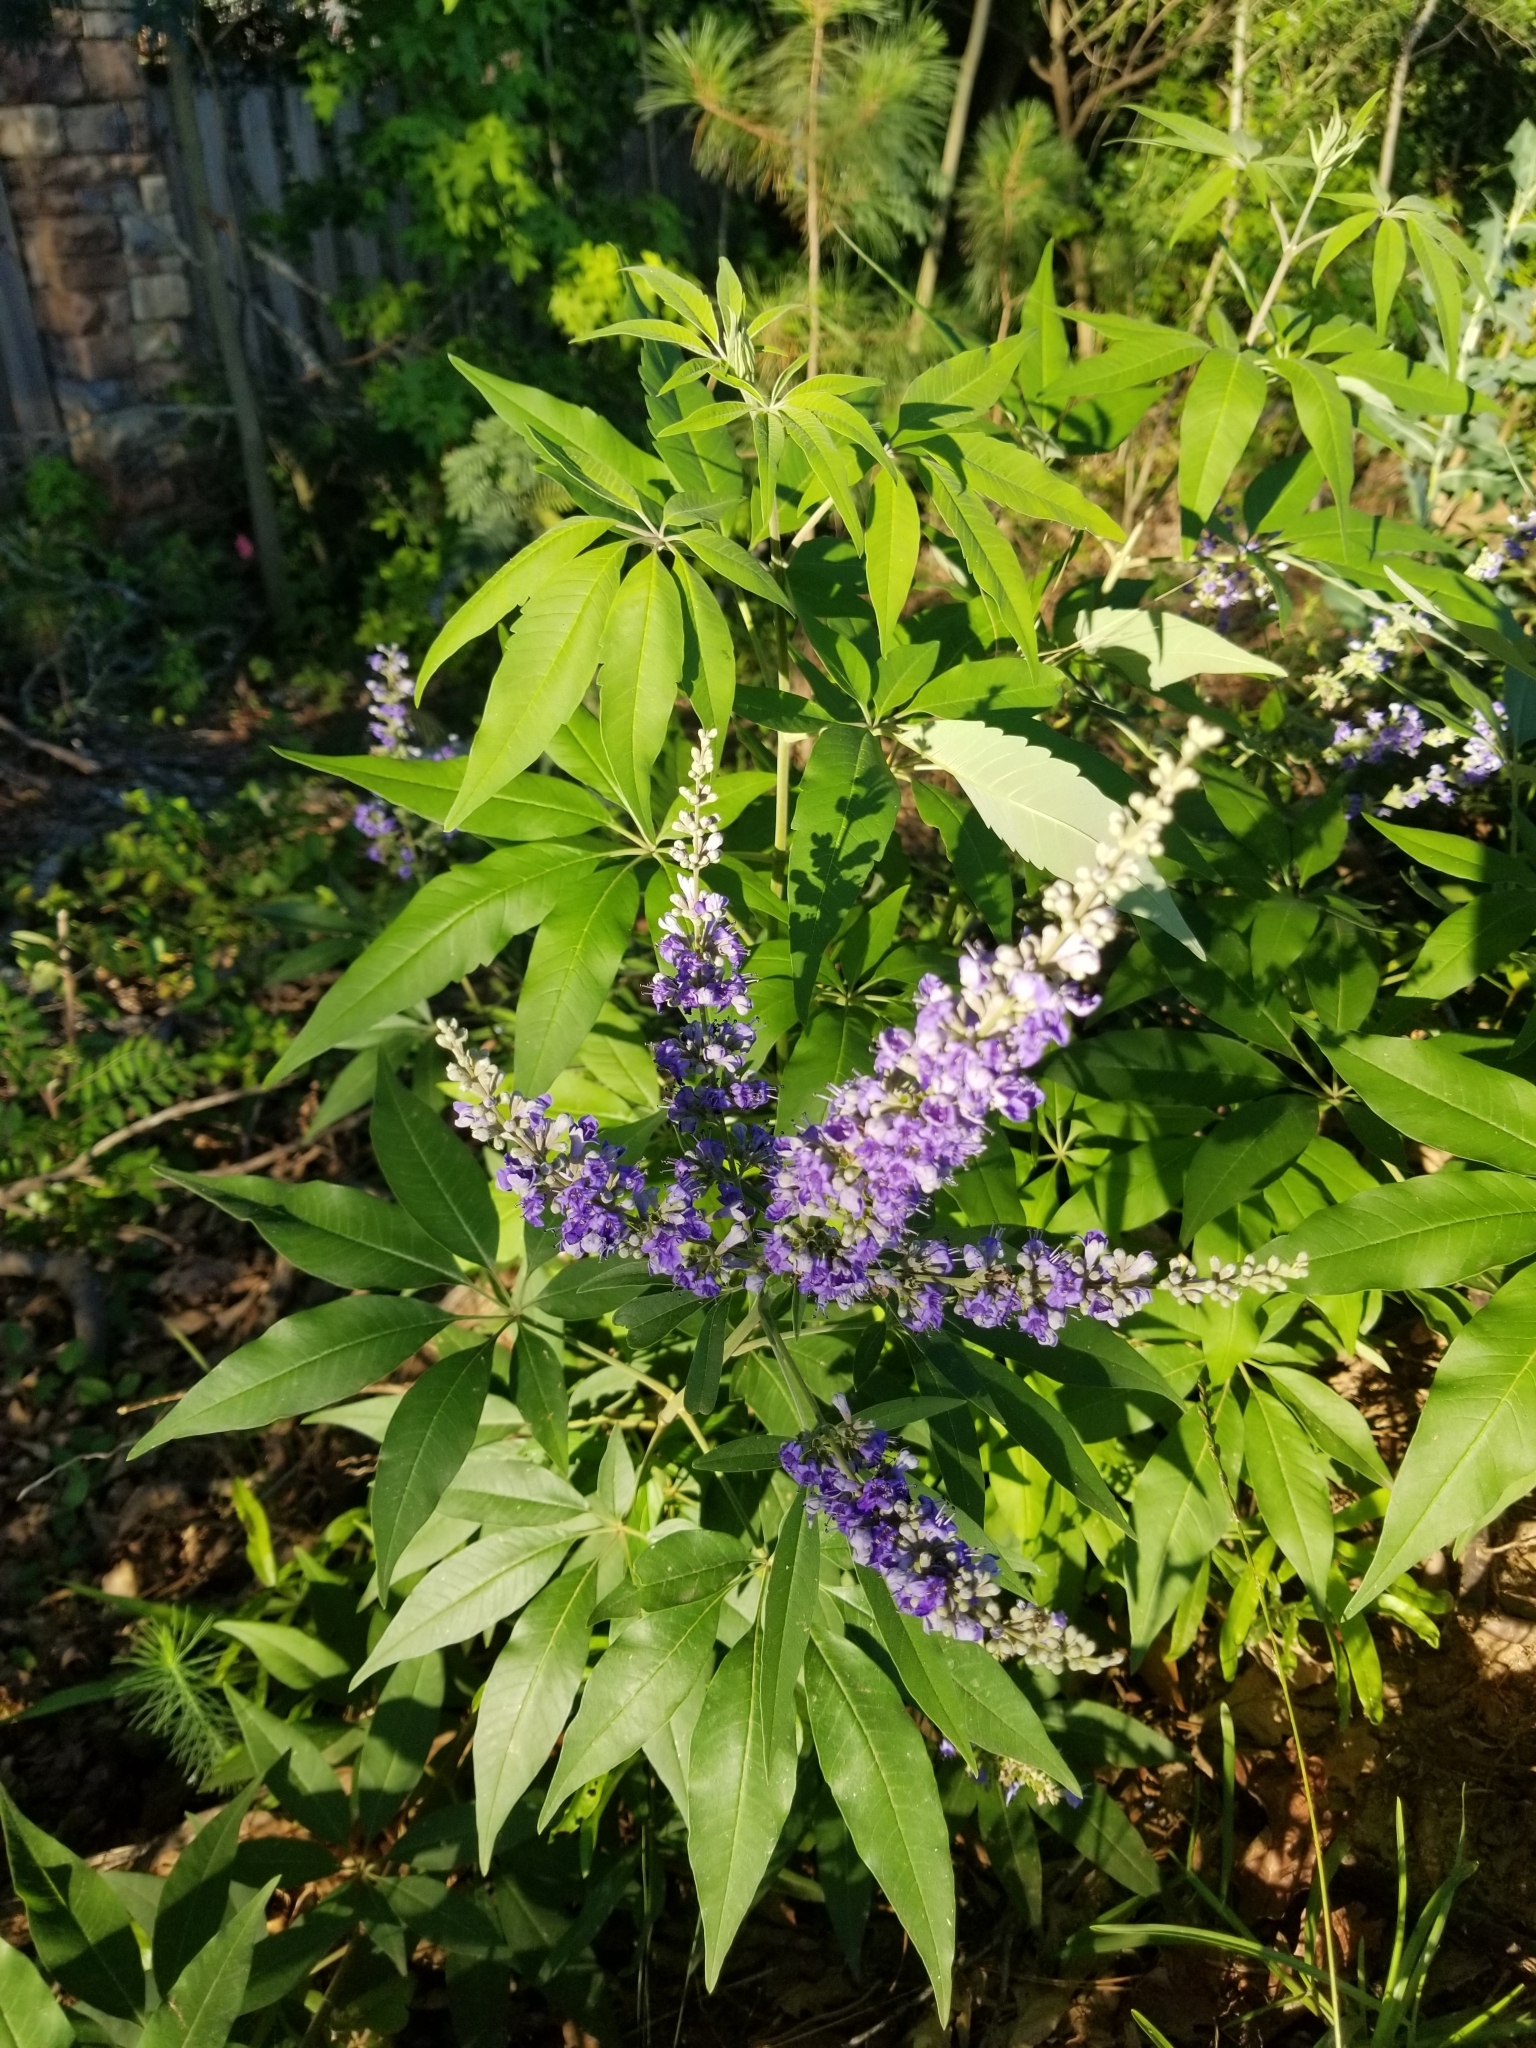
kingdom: Plantae
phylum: Tracheophyta
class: Magnoliopsida
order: Lamiales
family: Lamiaceae
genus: Vitex
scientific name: Vitex agnus-castus
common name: Chasteberry
